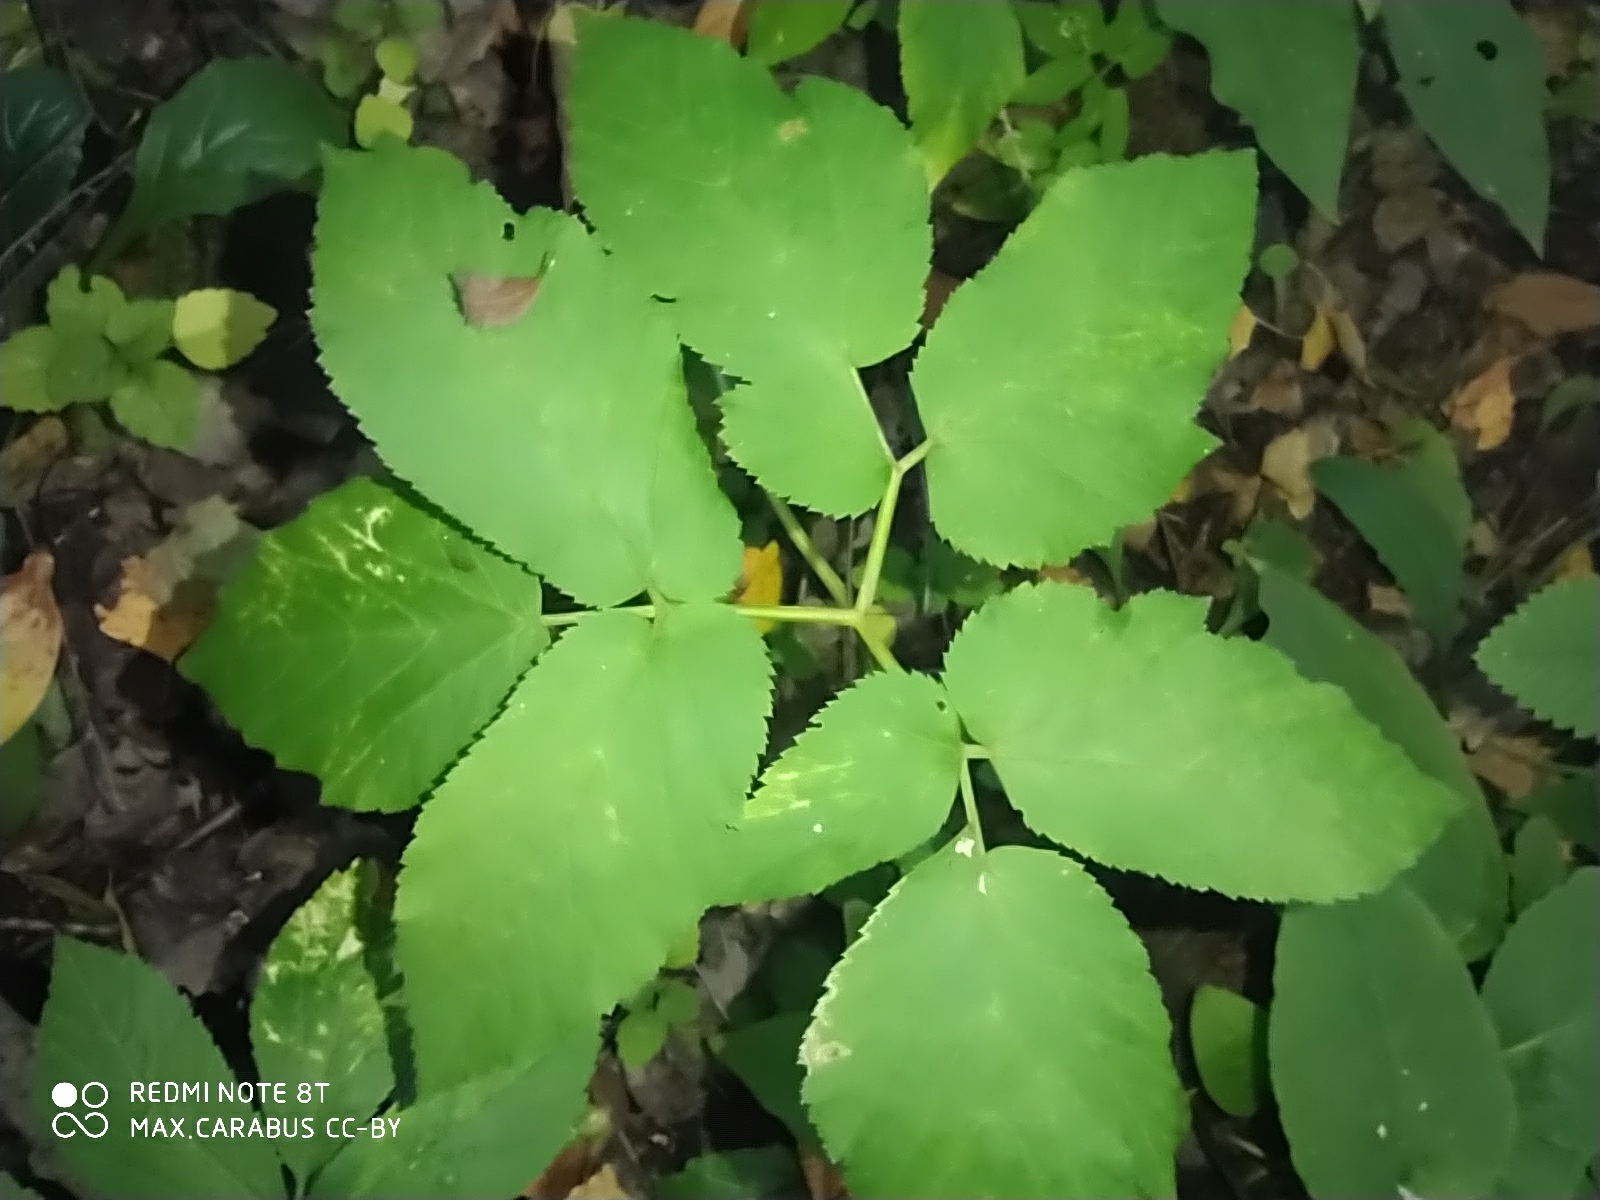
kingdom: Plantae
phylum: Tracheophyta
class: Magnoliopsida
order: Apiales
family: Apiaceae
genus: Aegopodium
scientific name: Aegopodium podagraria
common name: Ground-elder
